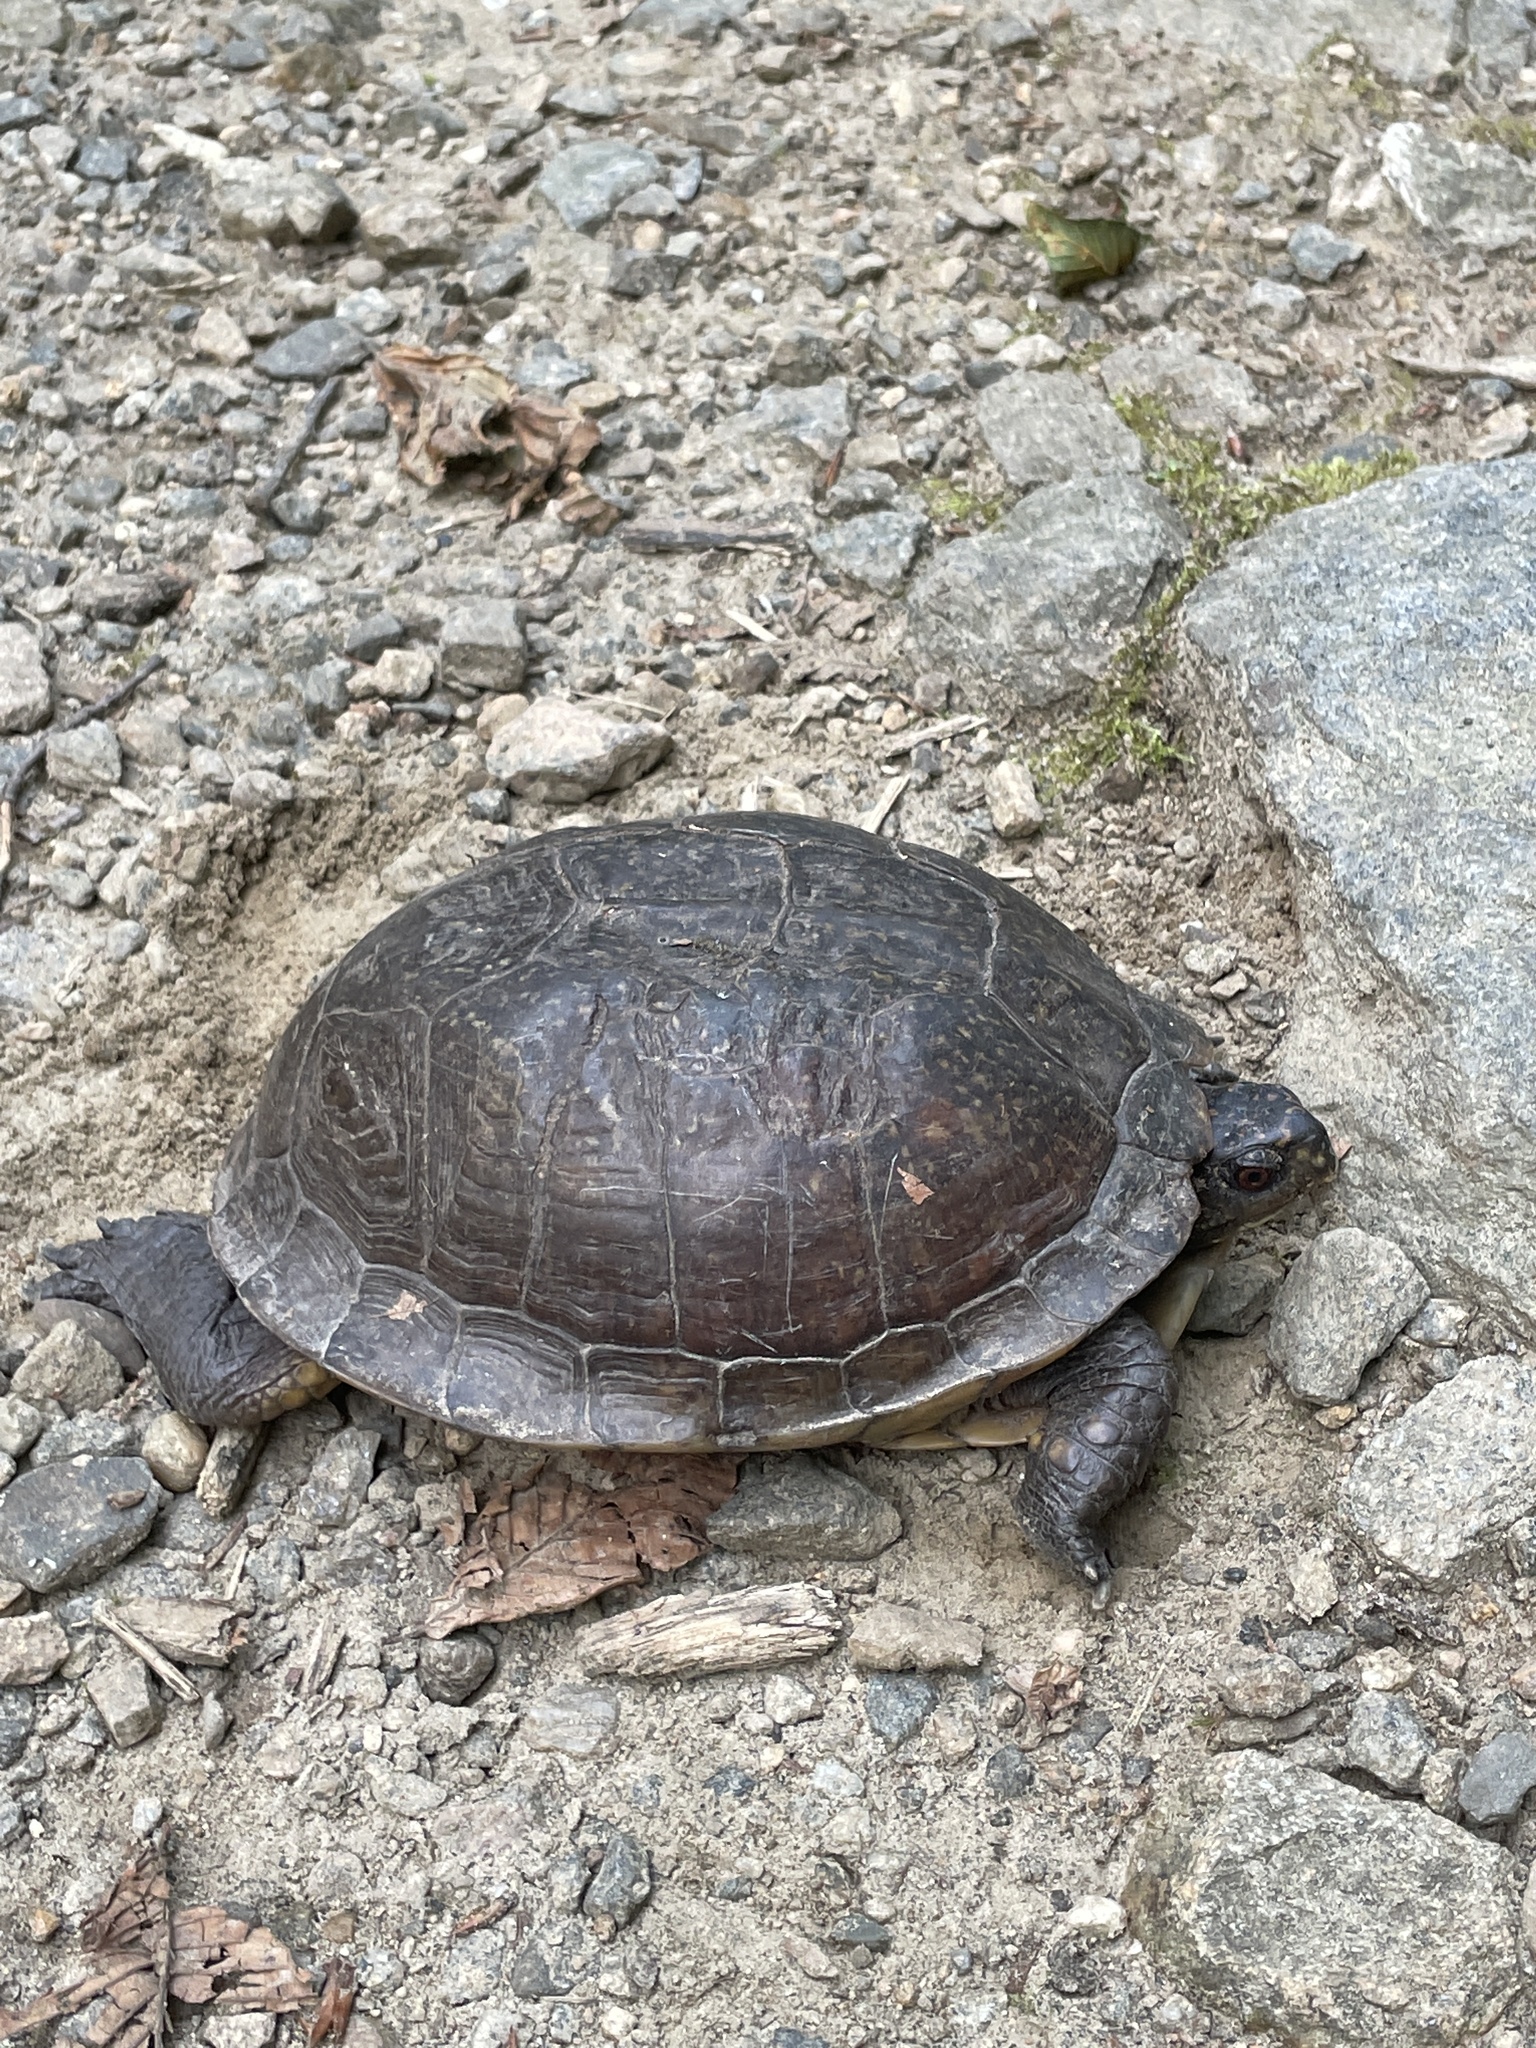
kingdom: Animalia
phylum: Chordata
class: Testudines
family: Emydidae
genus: Terrapene
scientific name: Terrapene carolina
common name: Common box turtle
